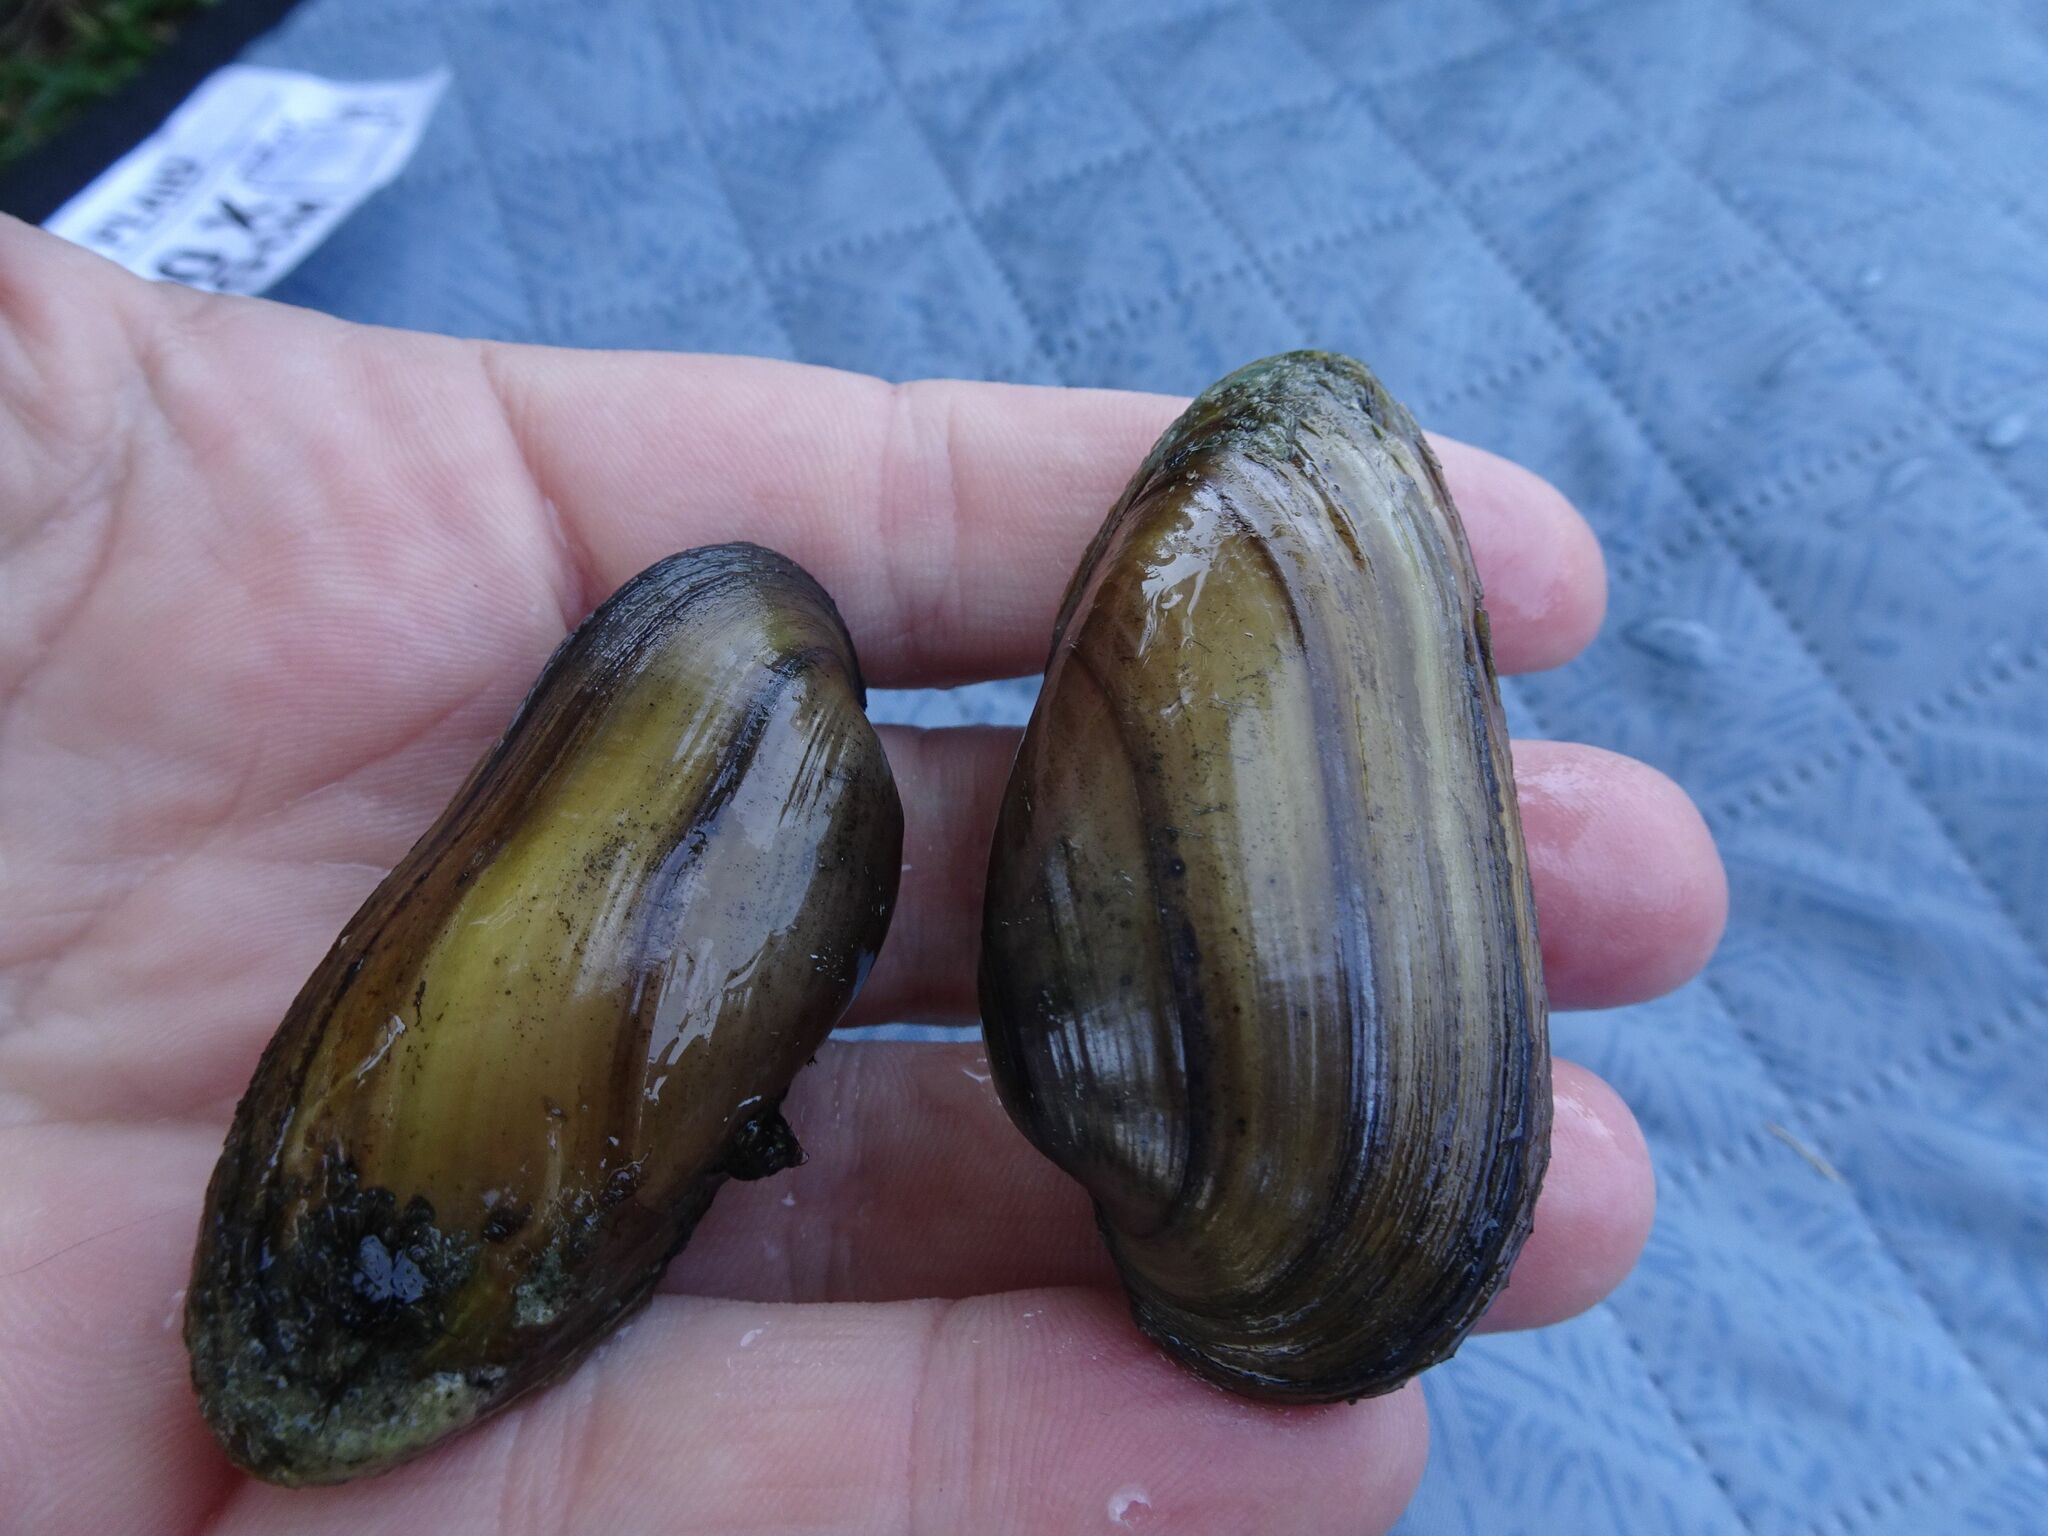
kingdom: Animalia
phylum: Mollusca
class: Bivalvia
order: Unionida
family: Unionidae
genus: Unio
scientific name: Unio mancus
